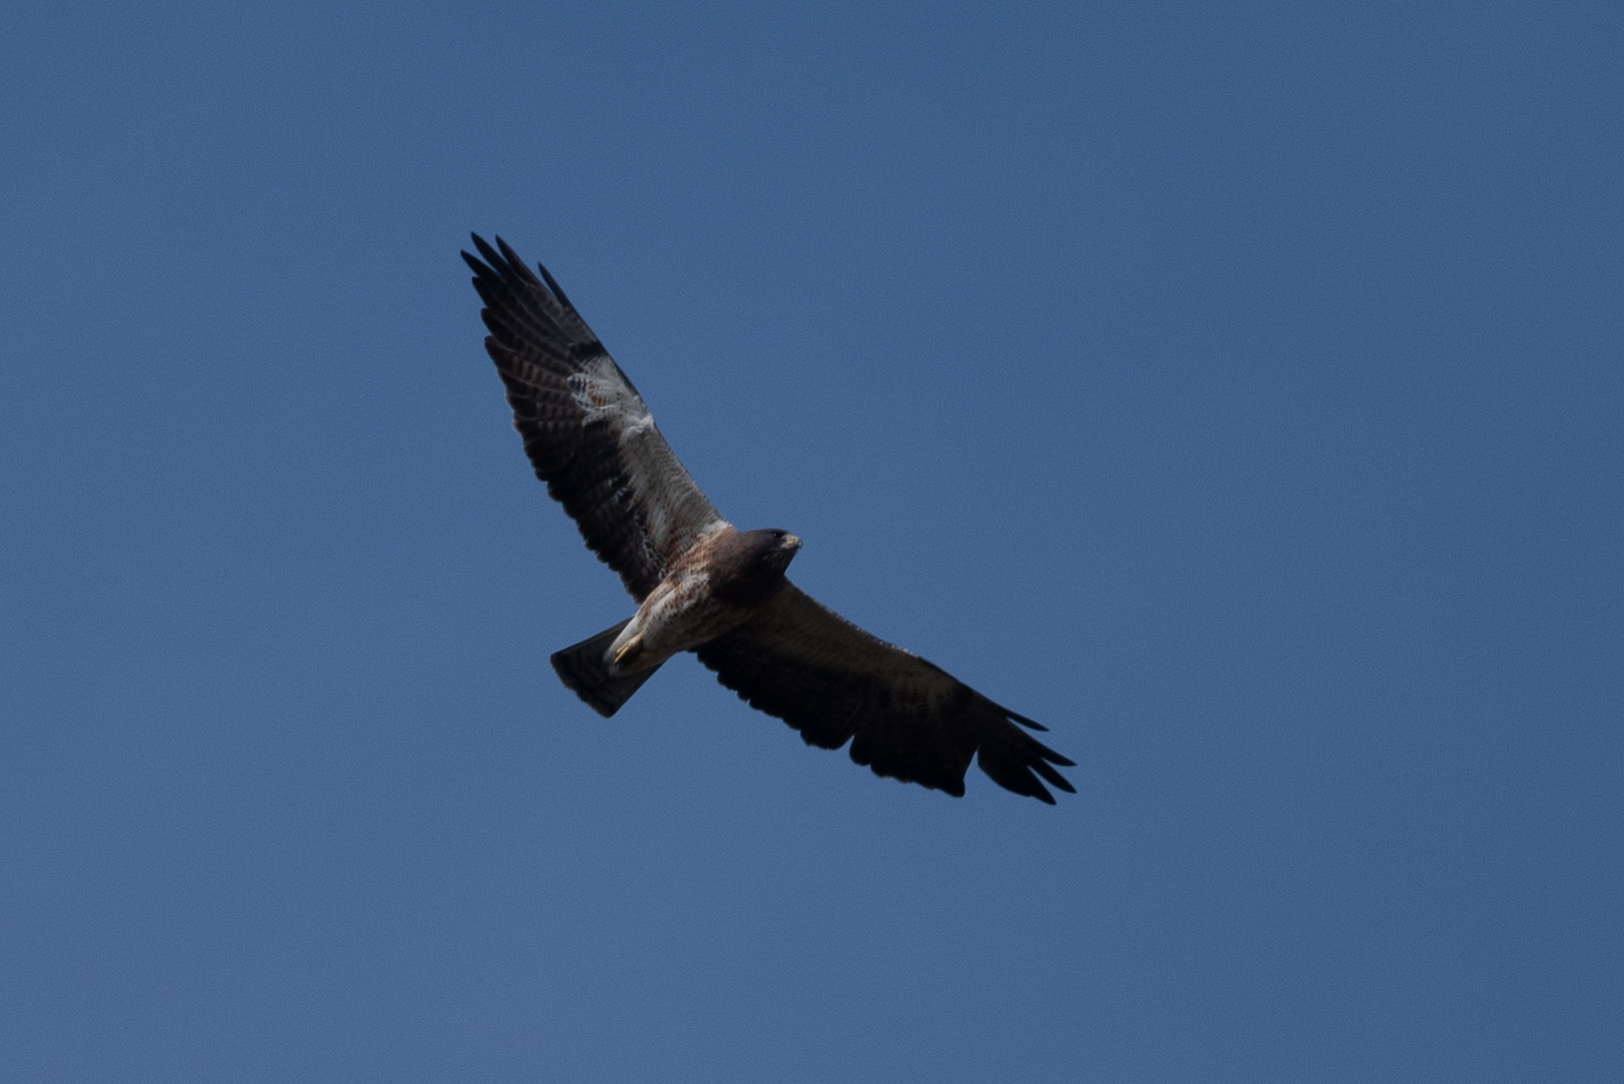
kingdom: Animalia
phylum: Chordata
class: Aves
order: Accipitriformes
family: Accipitridae
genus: Buteo
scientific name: Buteo swainsoni
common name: Swainson's hawk
